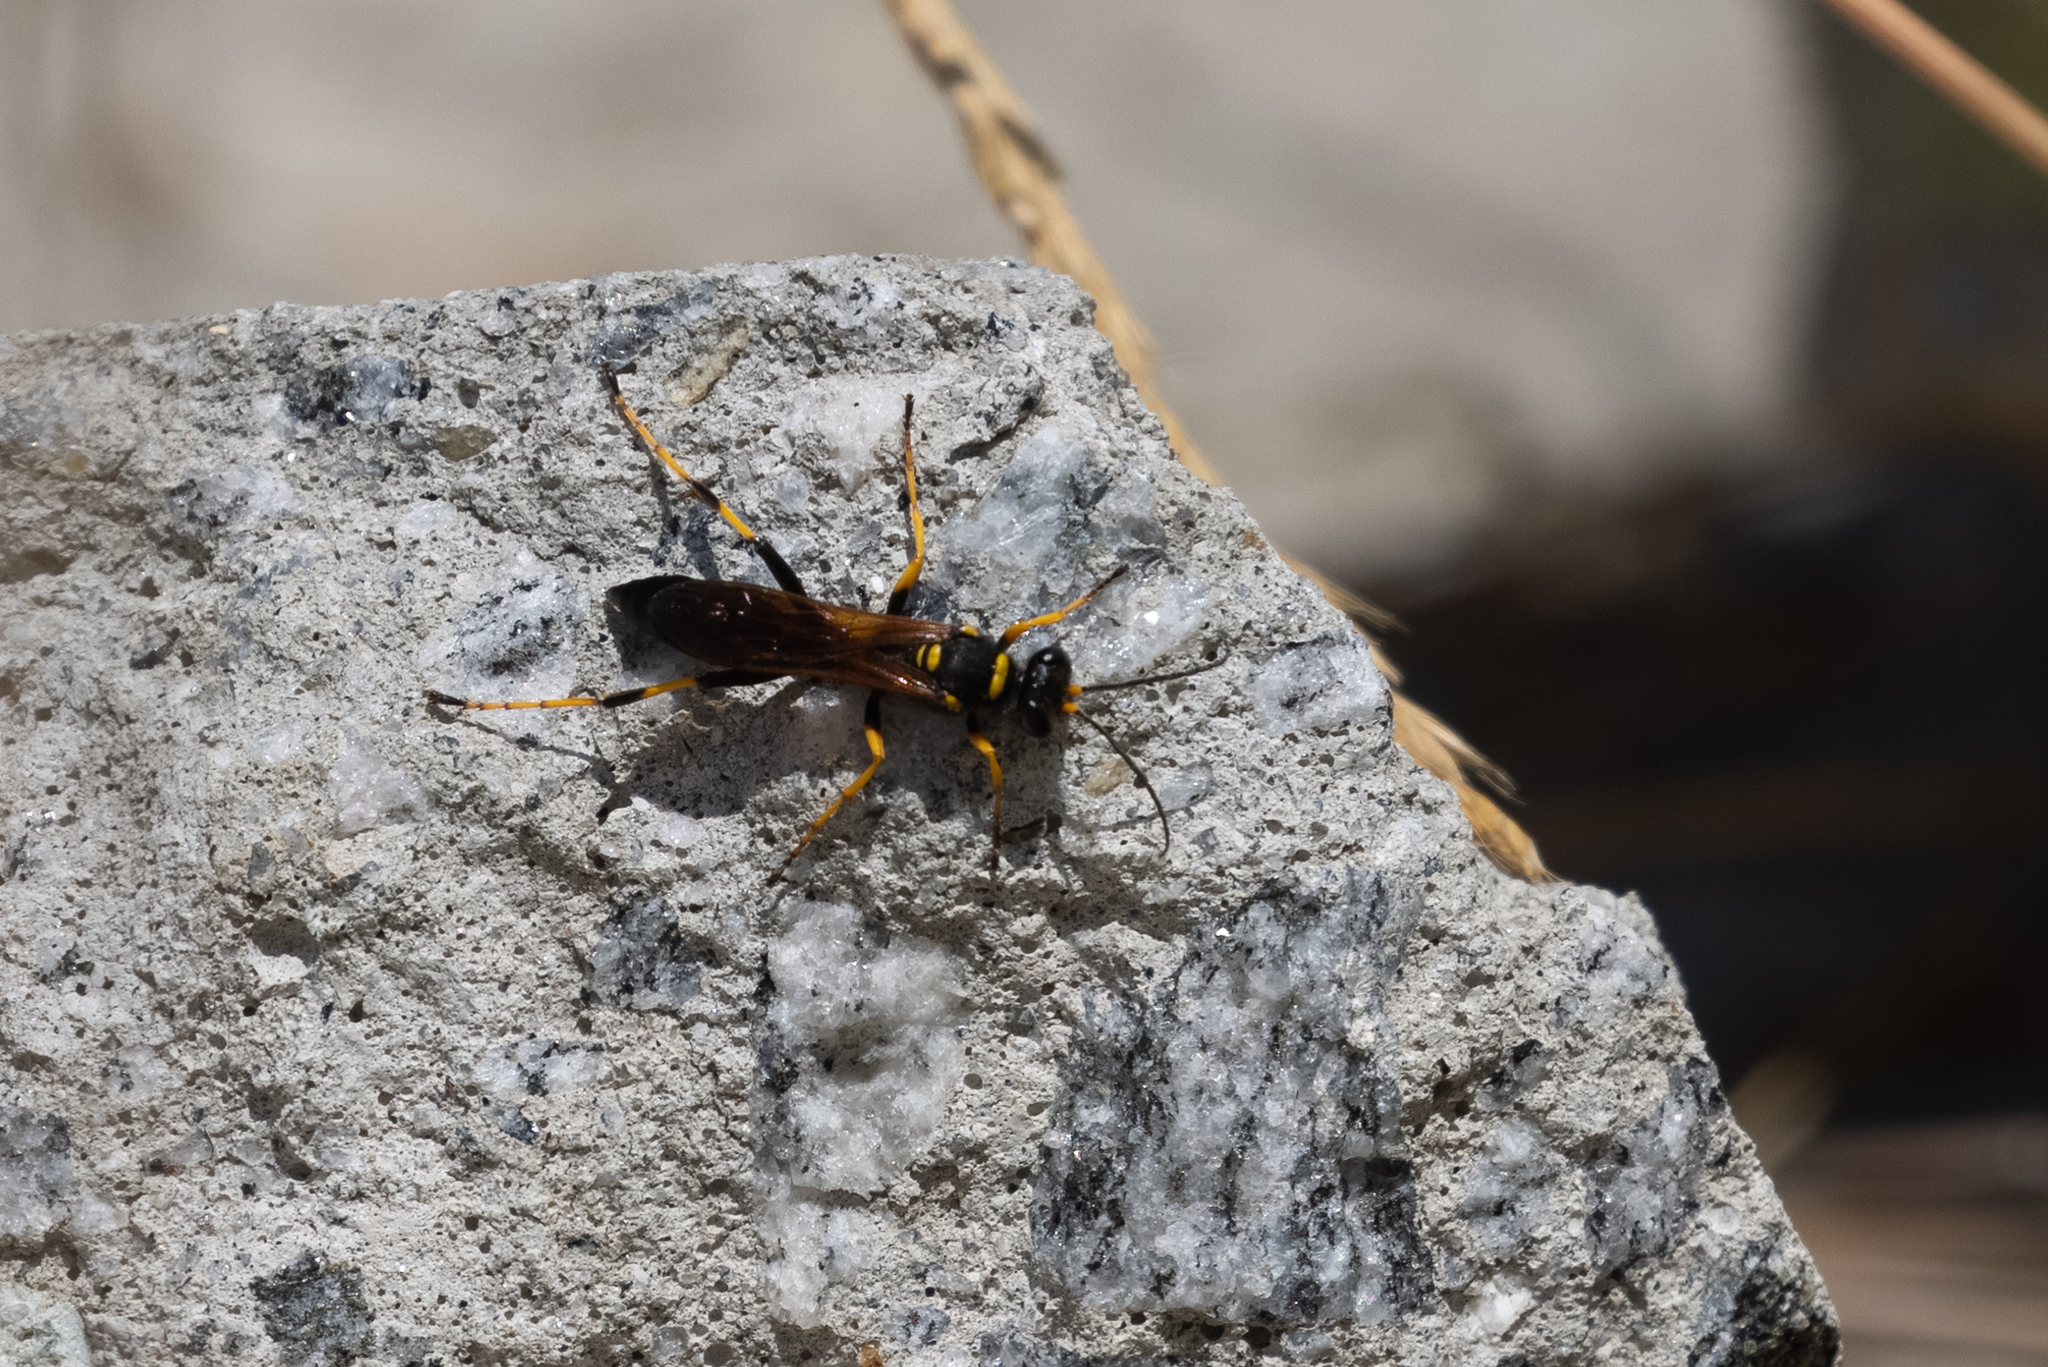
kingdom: Animalia
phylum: Arthropoda
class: Insecta
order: Hymenoptera
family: Sphecidae
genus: Sceliphron
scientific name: Sceliphron caementarium
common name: Mud dauber
